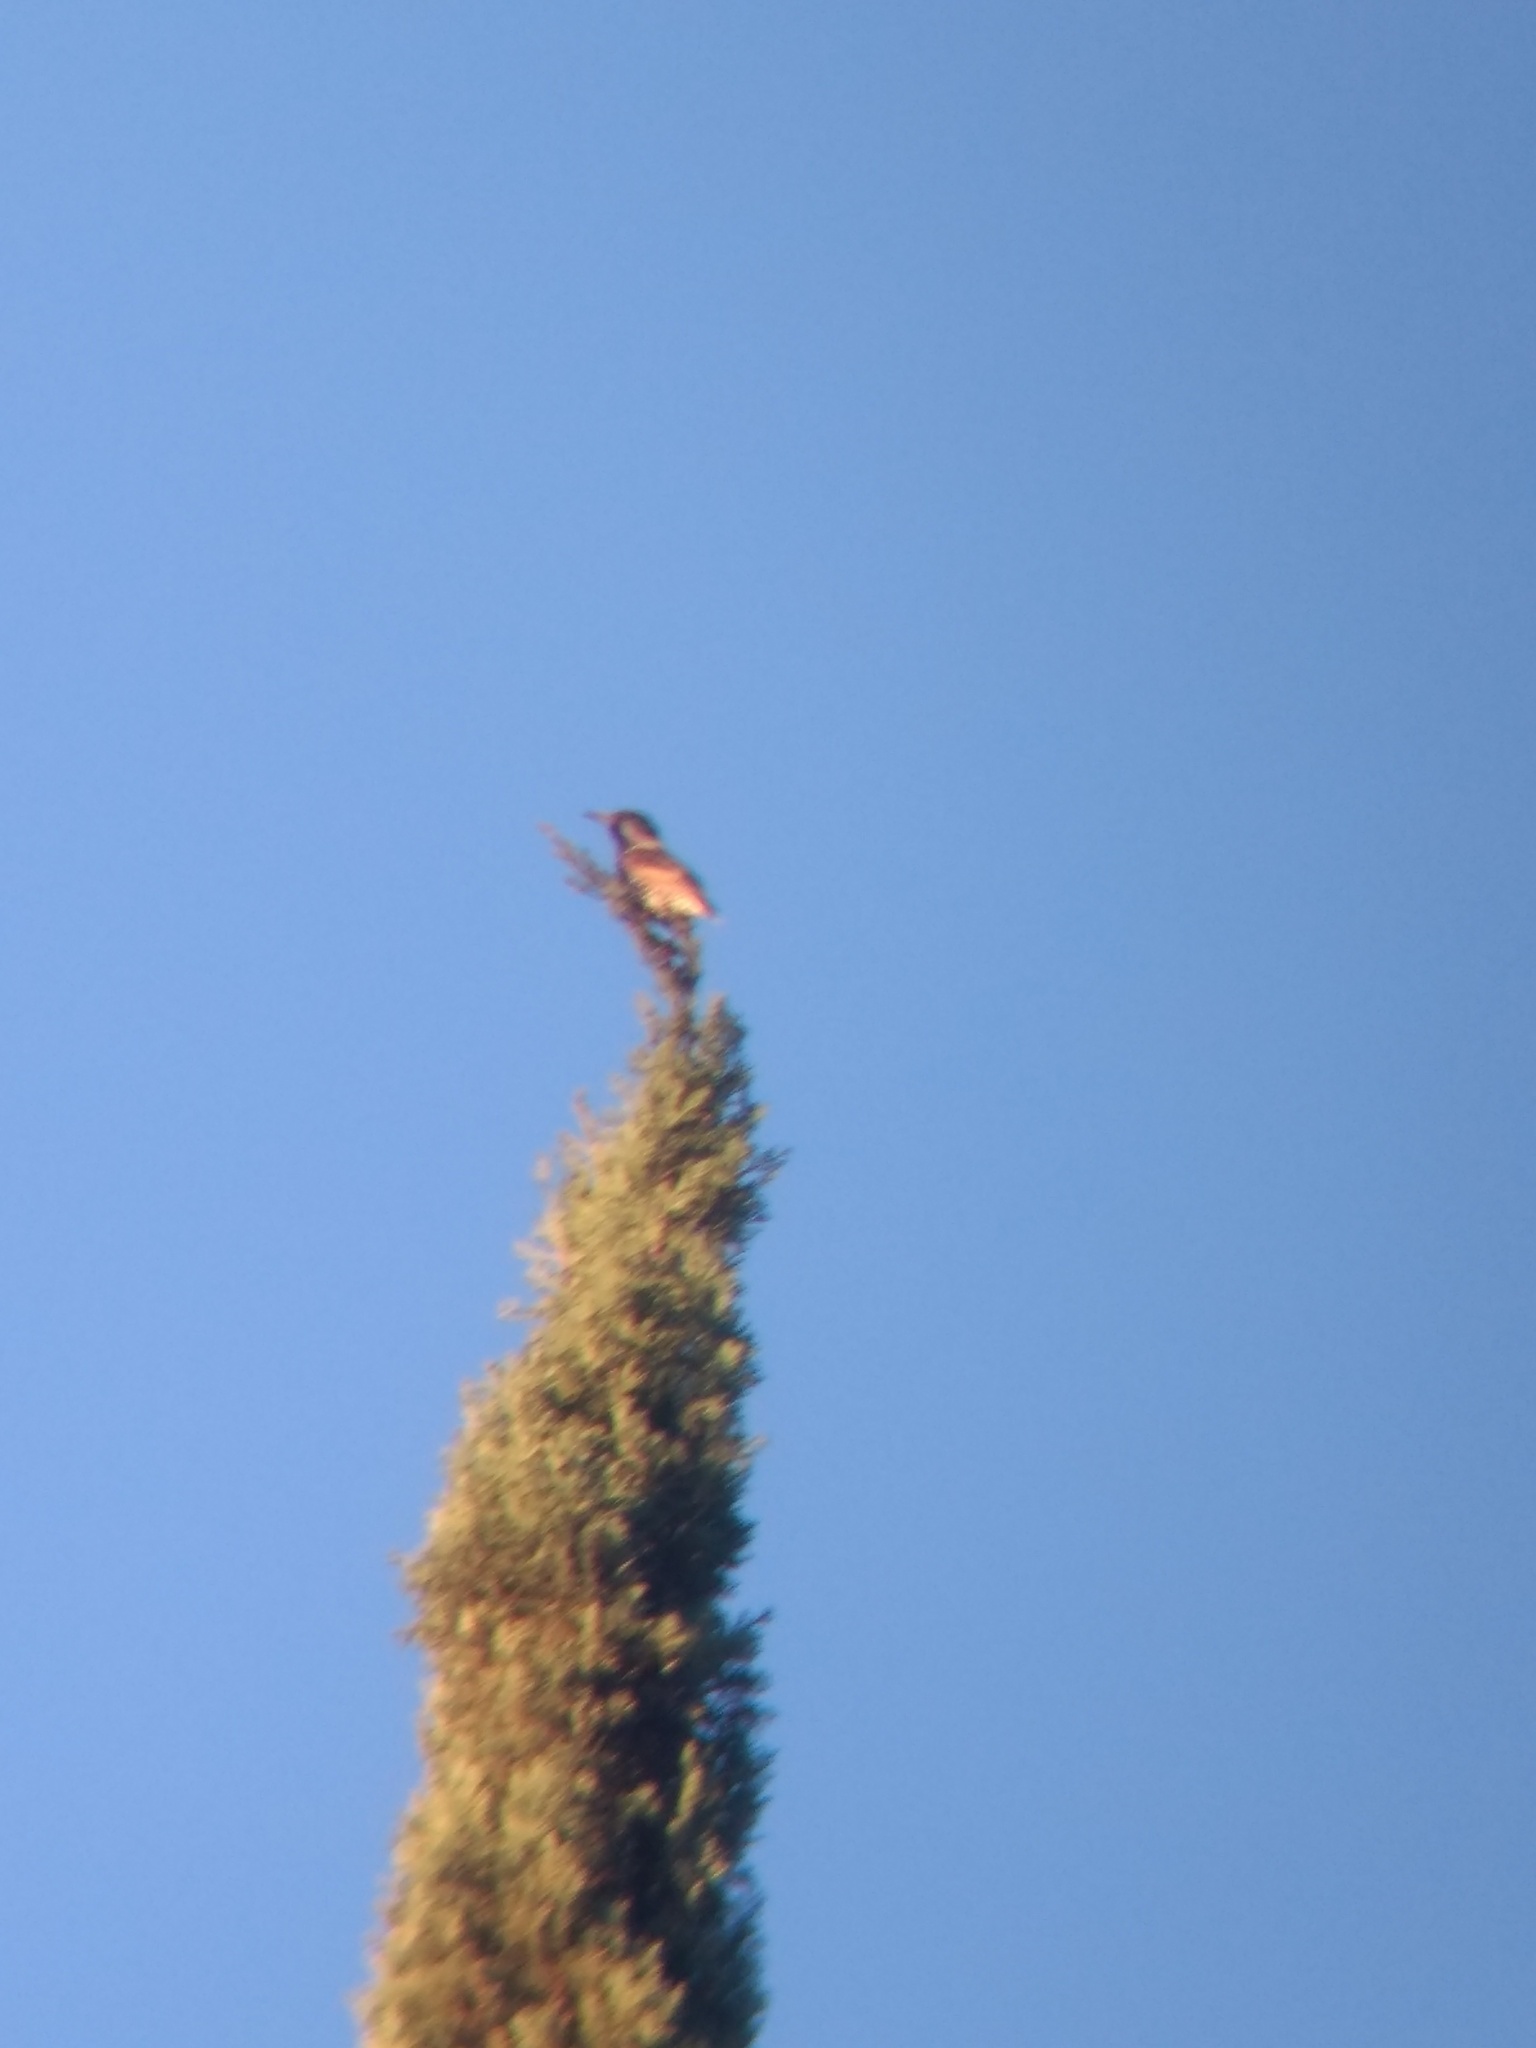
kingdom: Animalia
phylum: Chordata
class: Aves
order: Passeriformes
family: Sturnidae
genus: Sturnus
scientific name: Sturnus vulgaris
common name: Common starling
